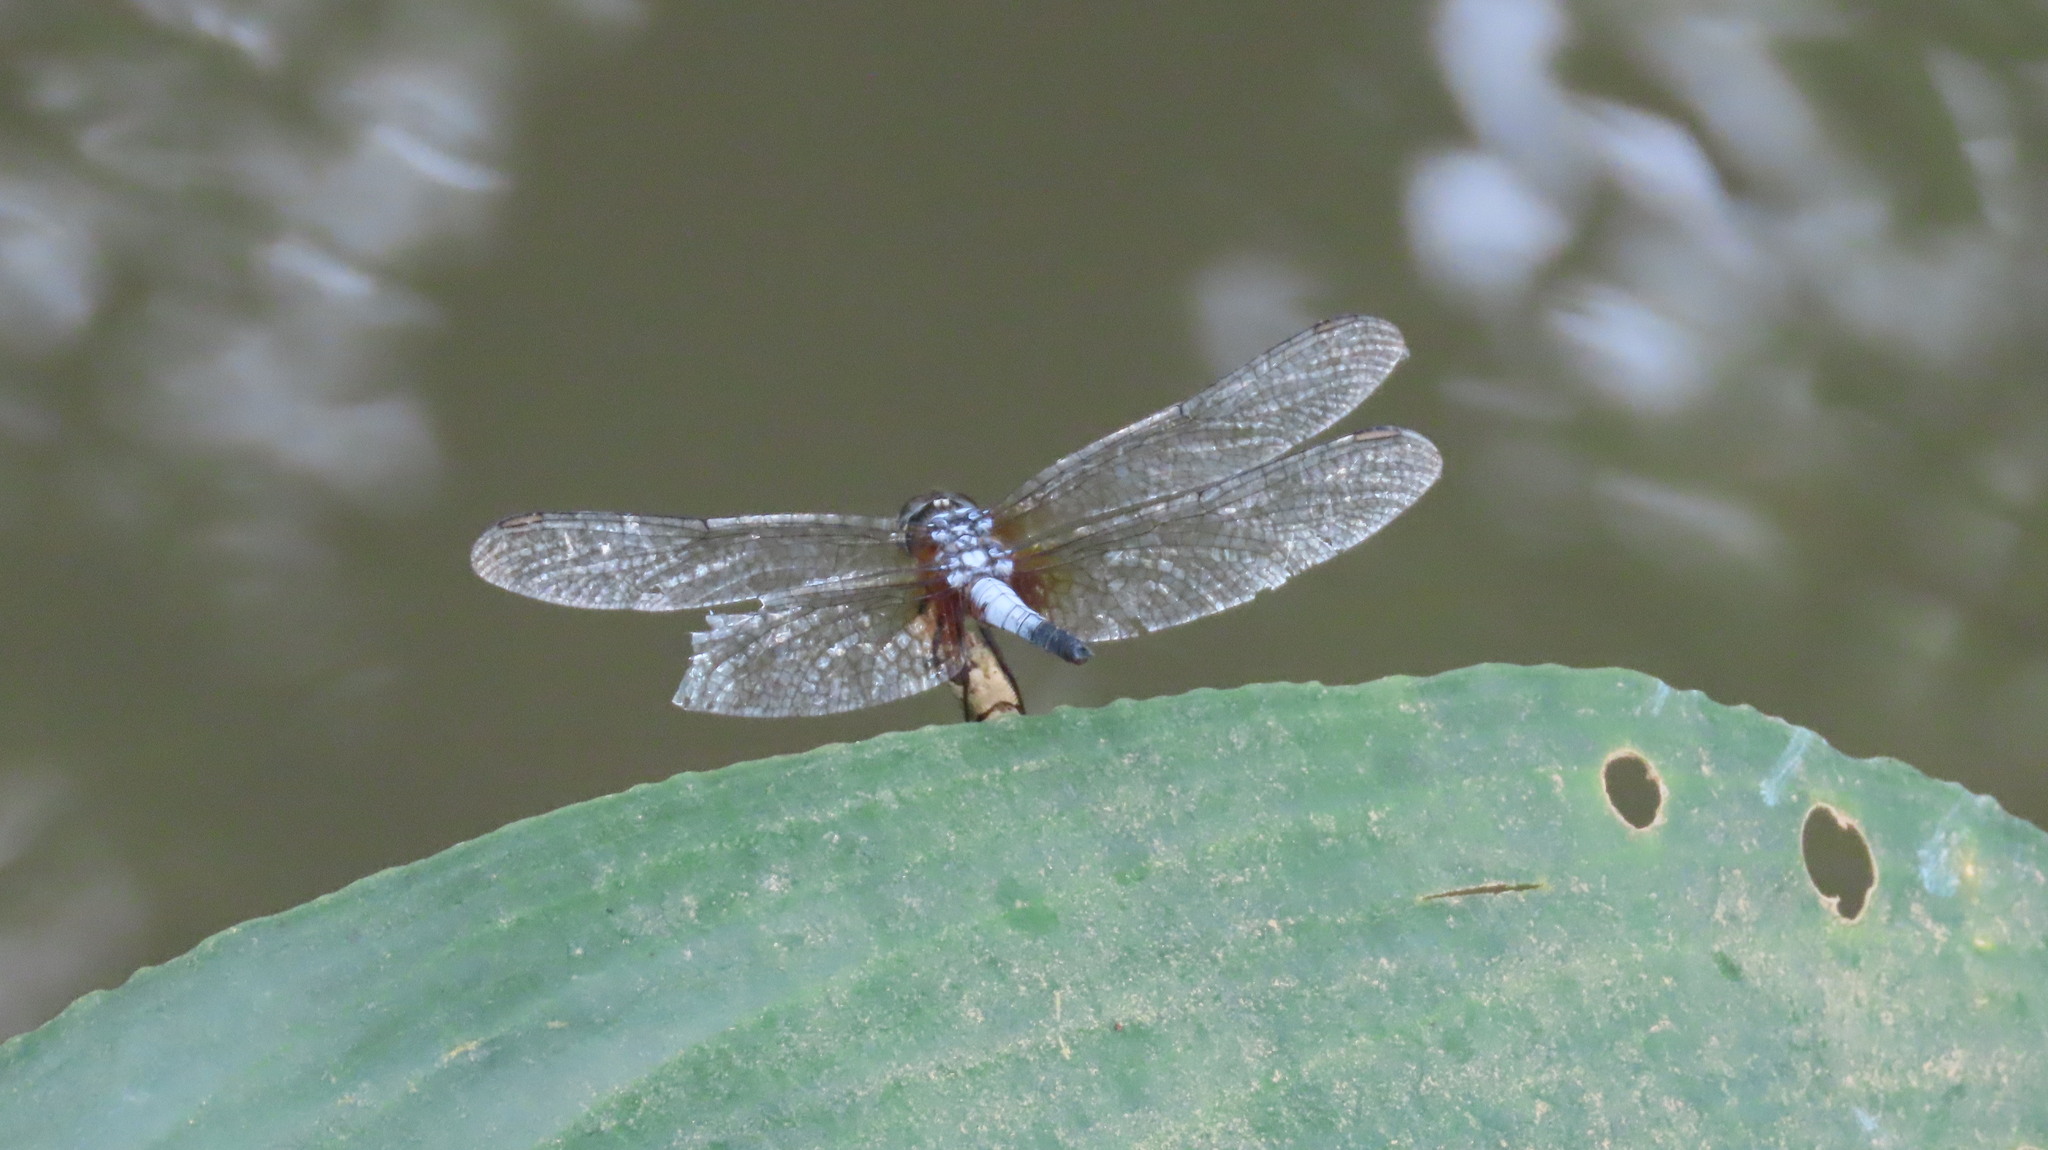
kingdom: Animalia
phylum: Arthropoda
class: Insecta
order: Odonata
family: Libellulidae
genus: Brachydiplax
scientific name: Brachydiplax chalybea
